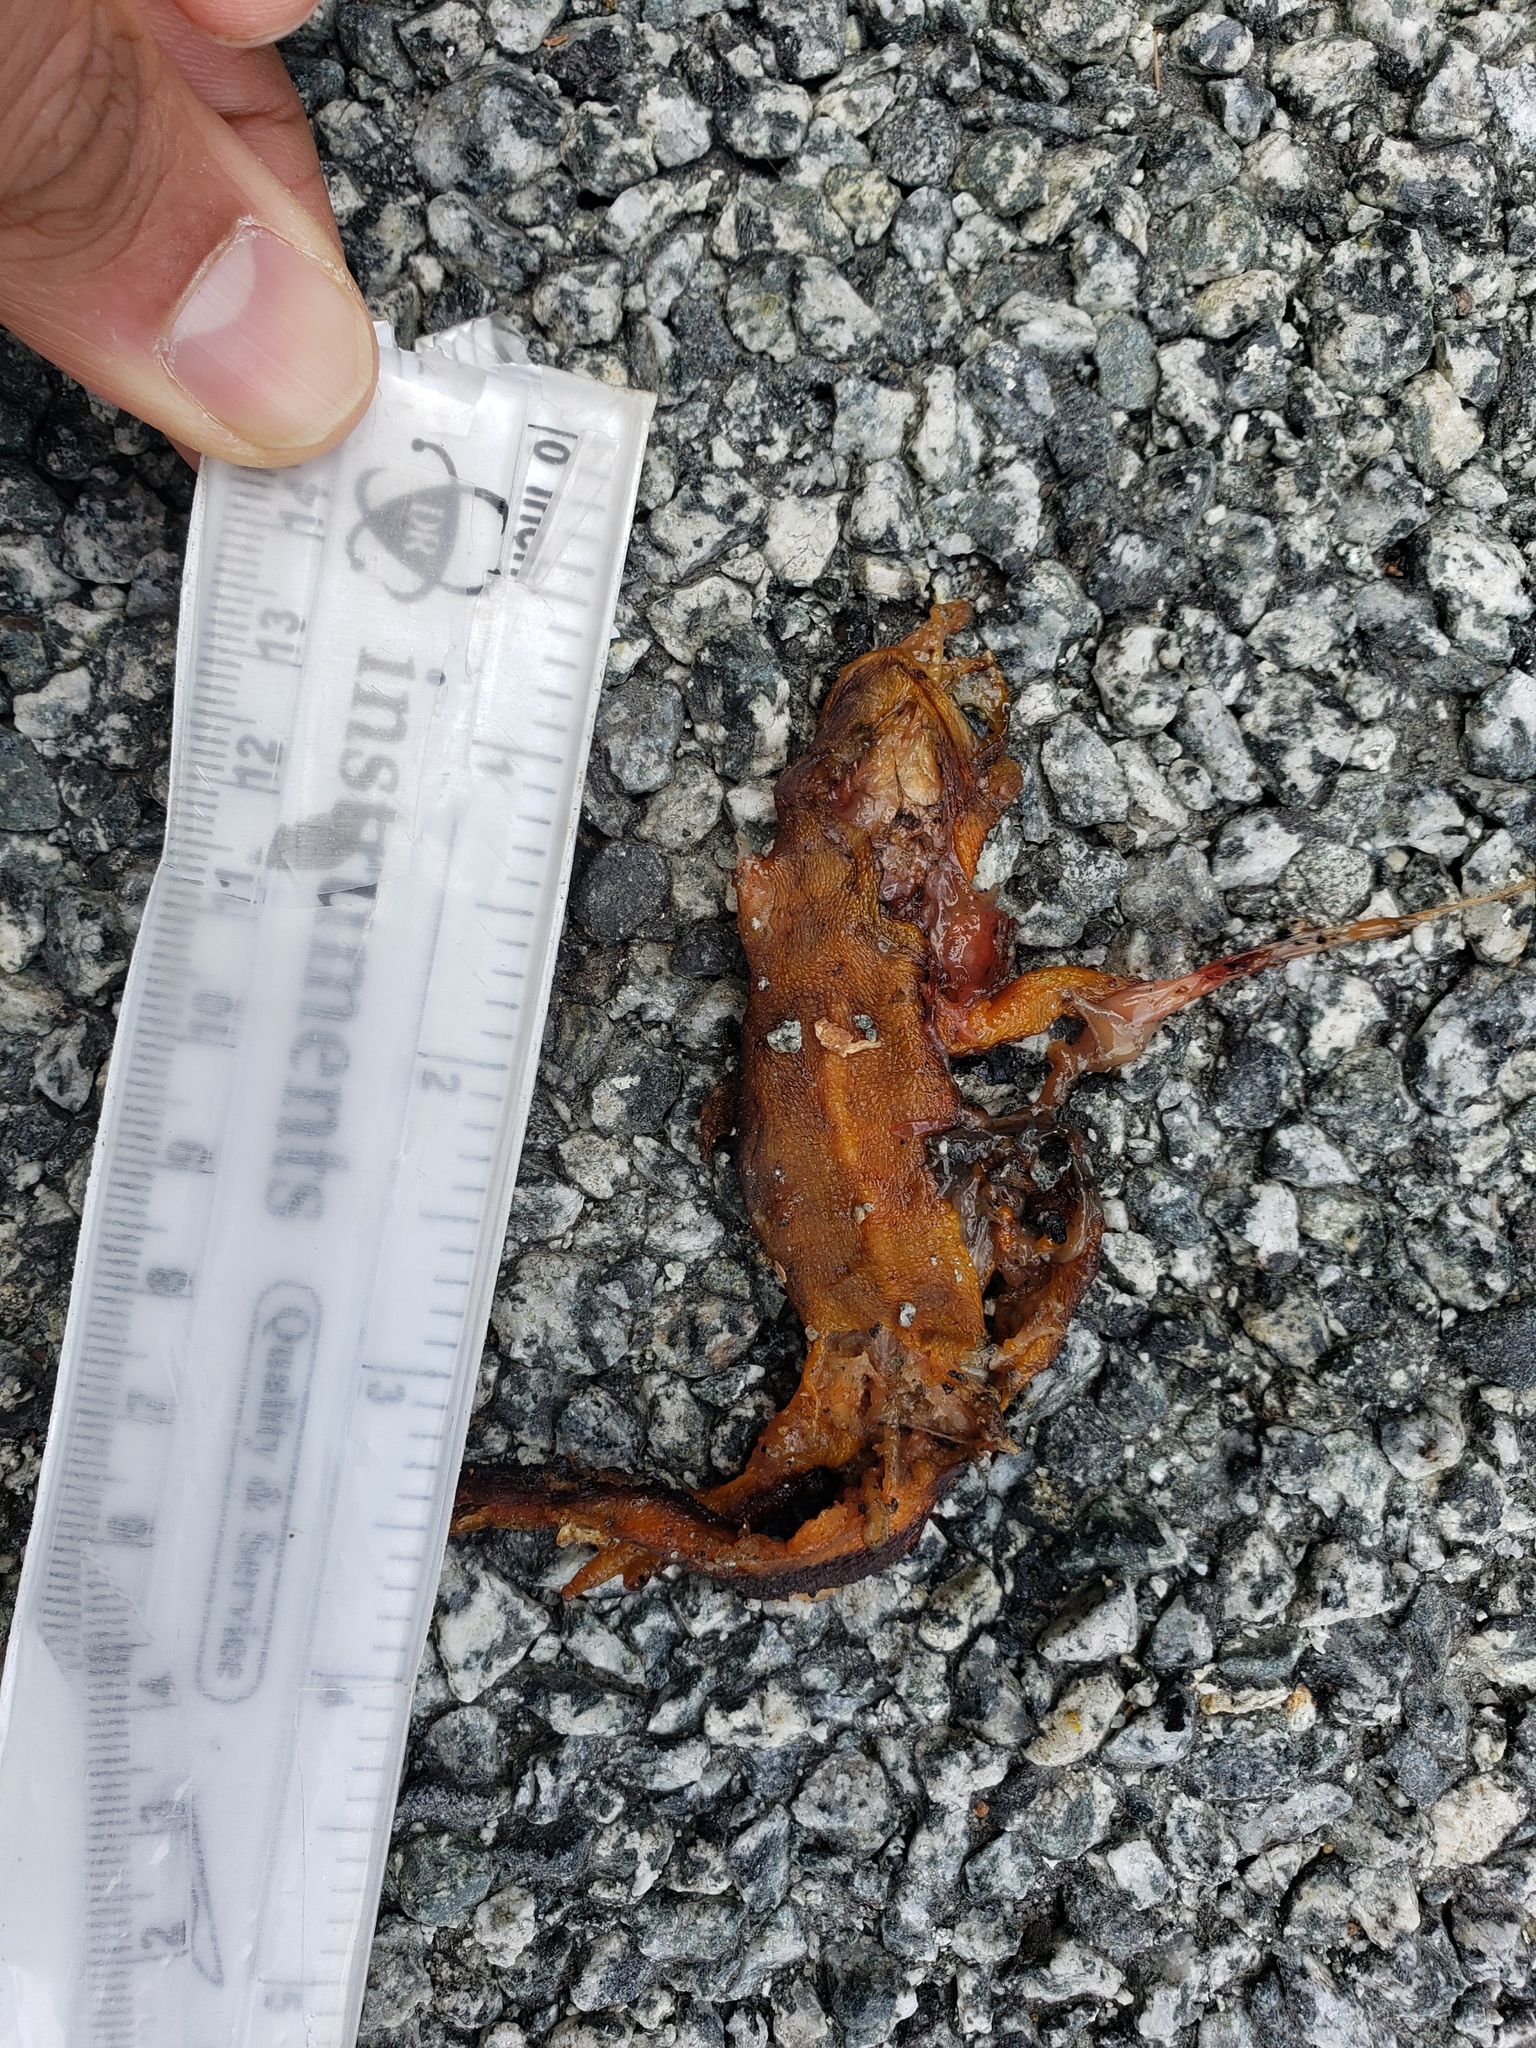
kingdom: Animalia
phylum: Chordata
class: Amphibia
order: Caudata
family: Salamandridae
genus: Taricha
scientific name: Taricha
